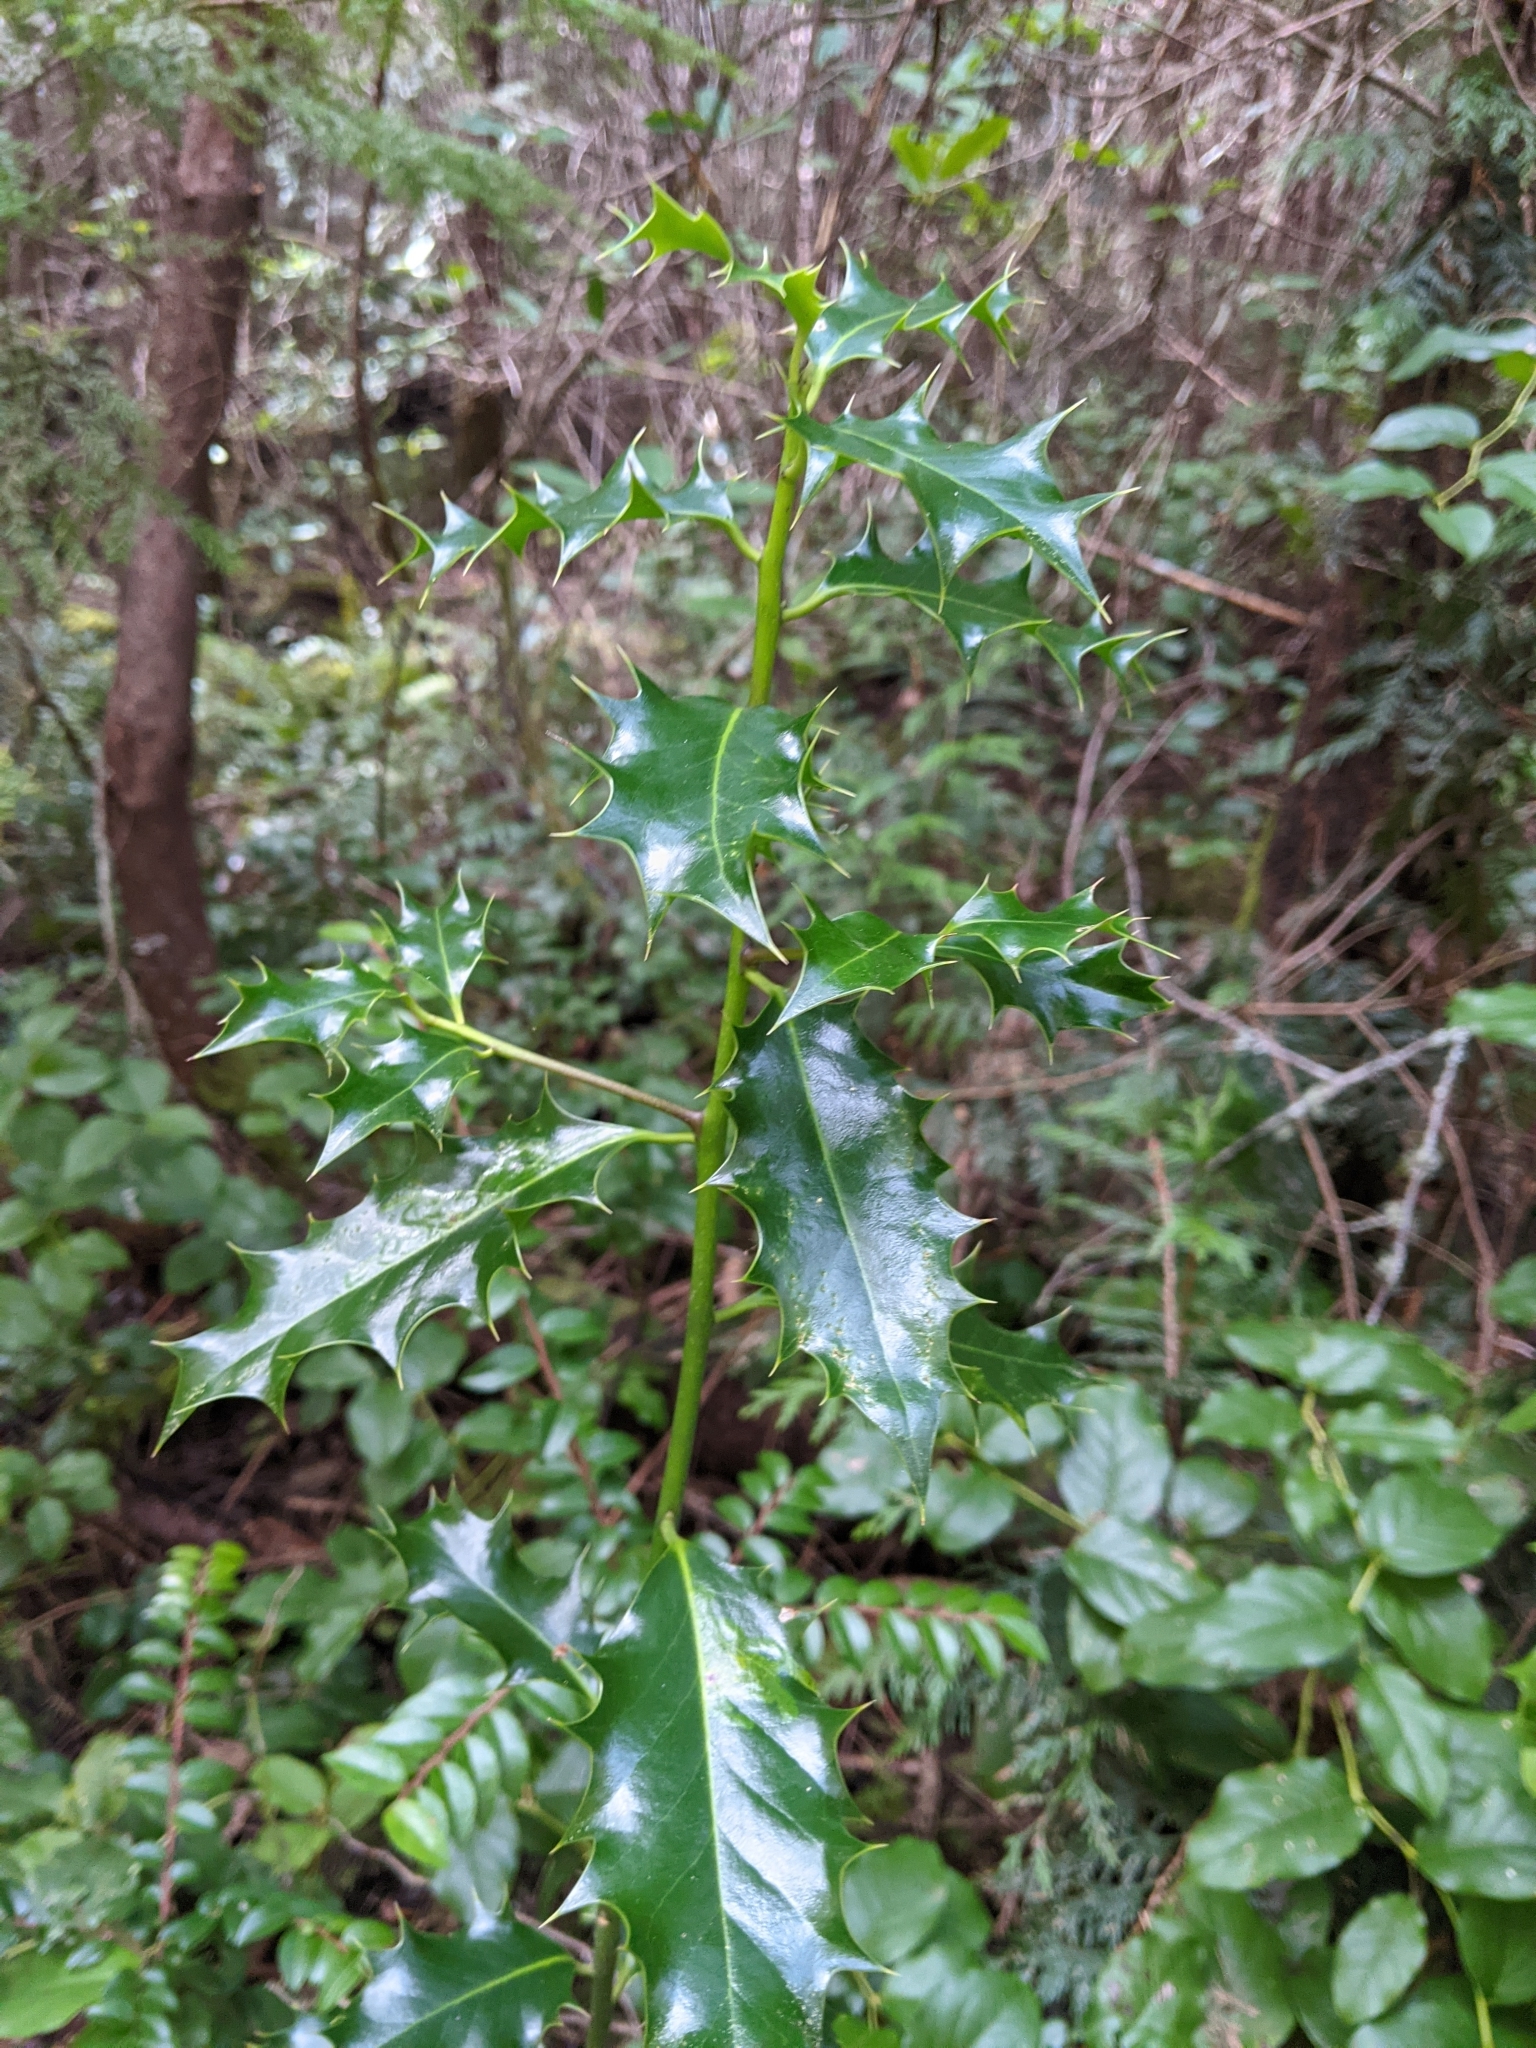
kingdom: Plantae
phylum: Tracheophyta
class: Magnoliopsida
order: Aquifoliales
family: Aquifoliaceae
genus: Ilex
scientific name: Ilex aquifolium
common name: English holly
